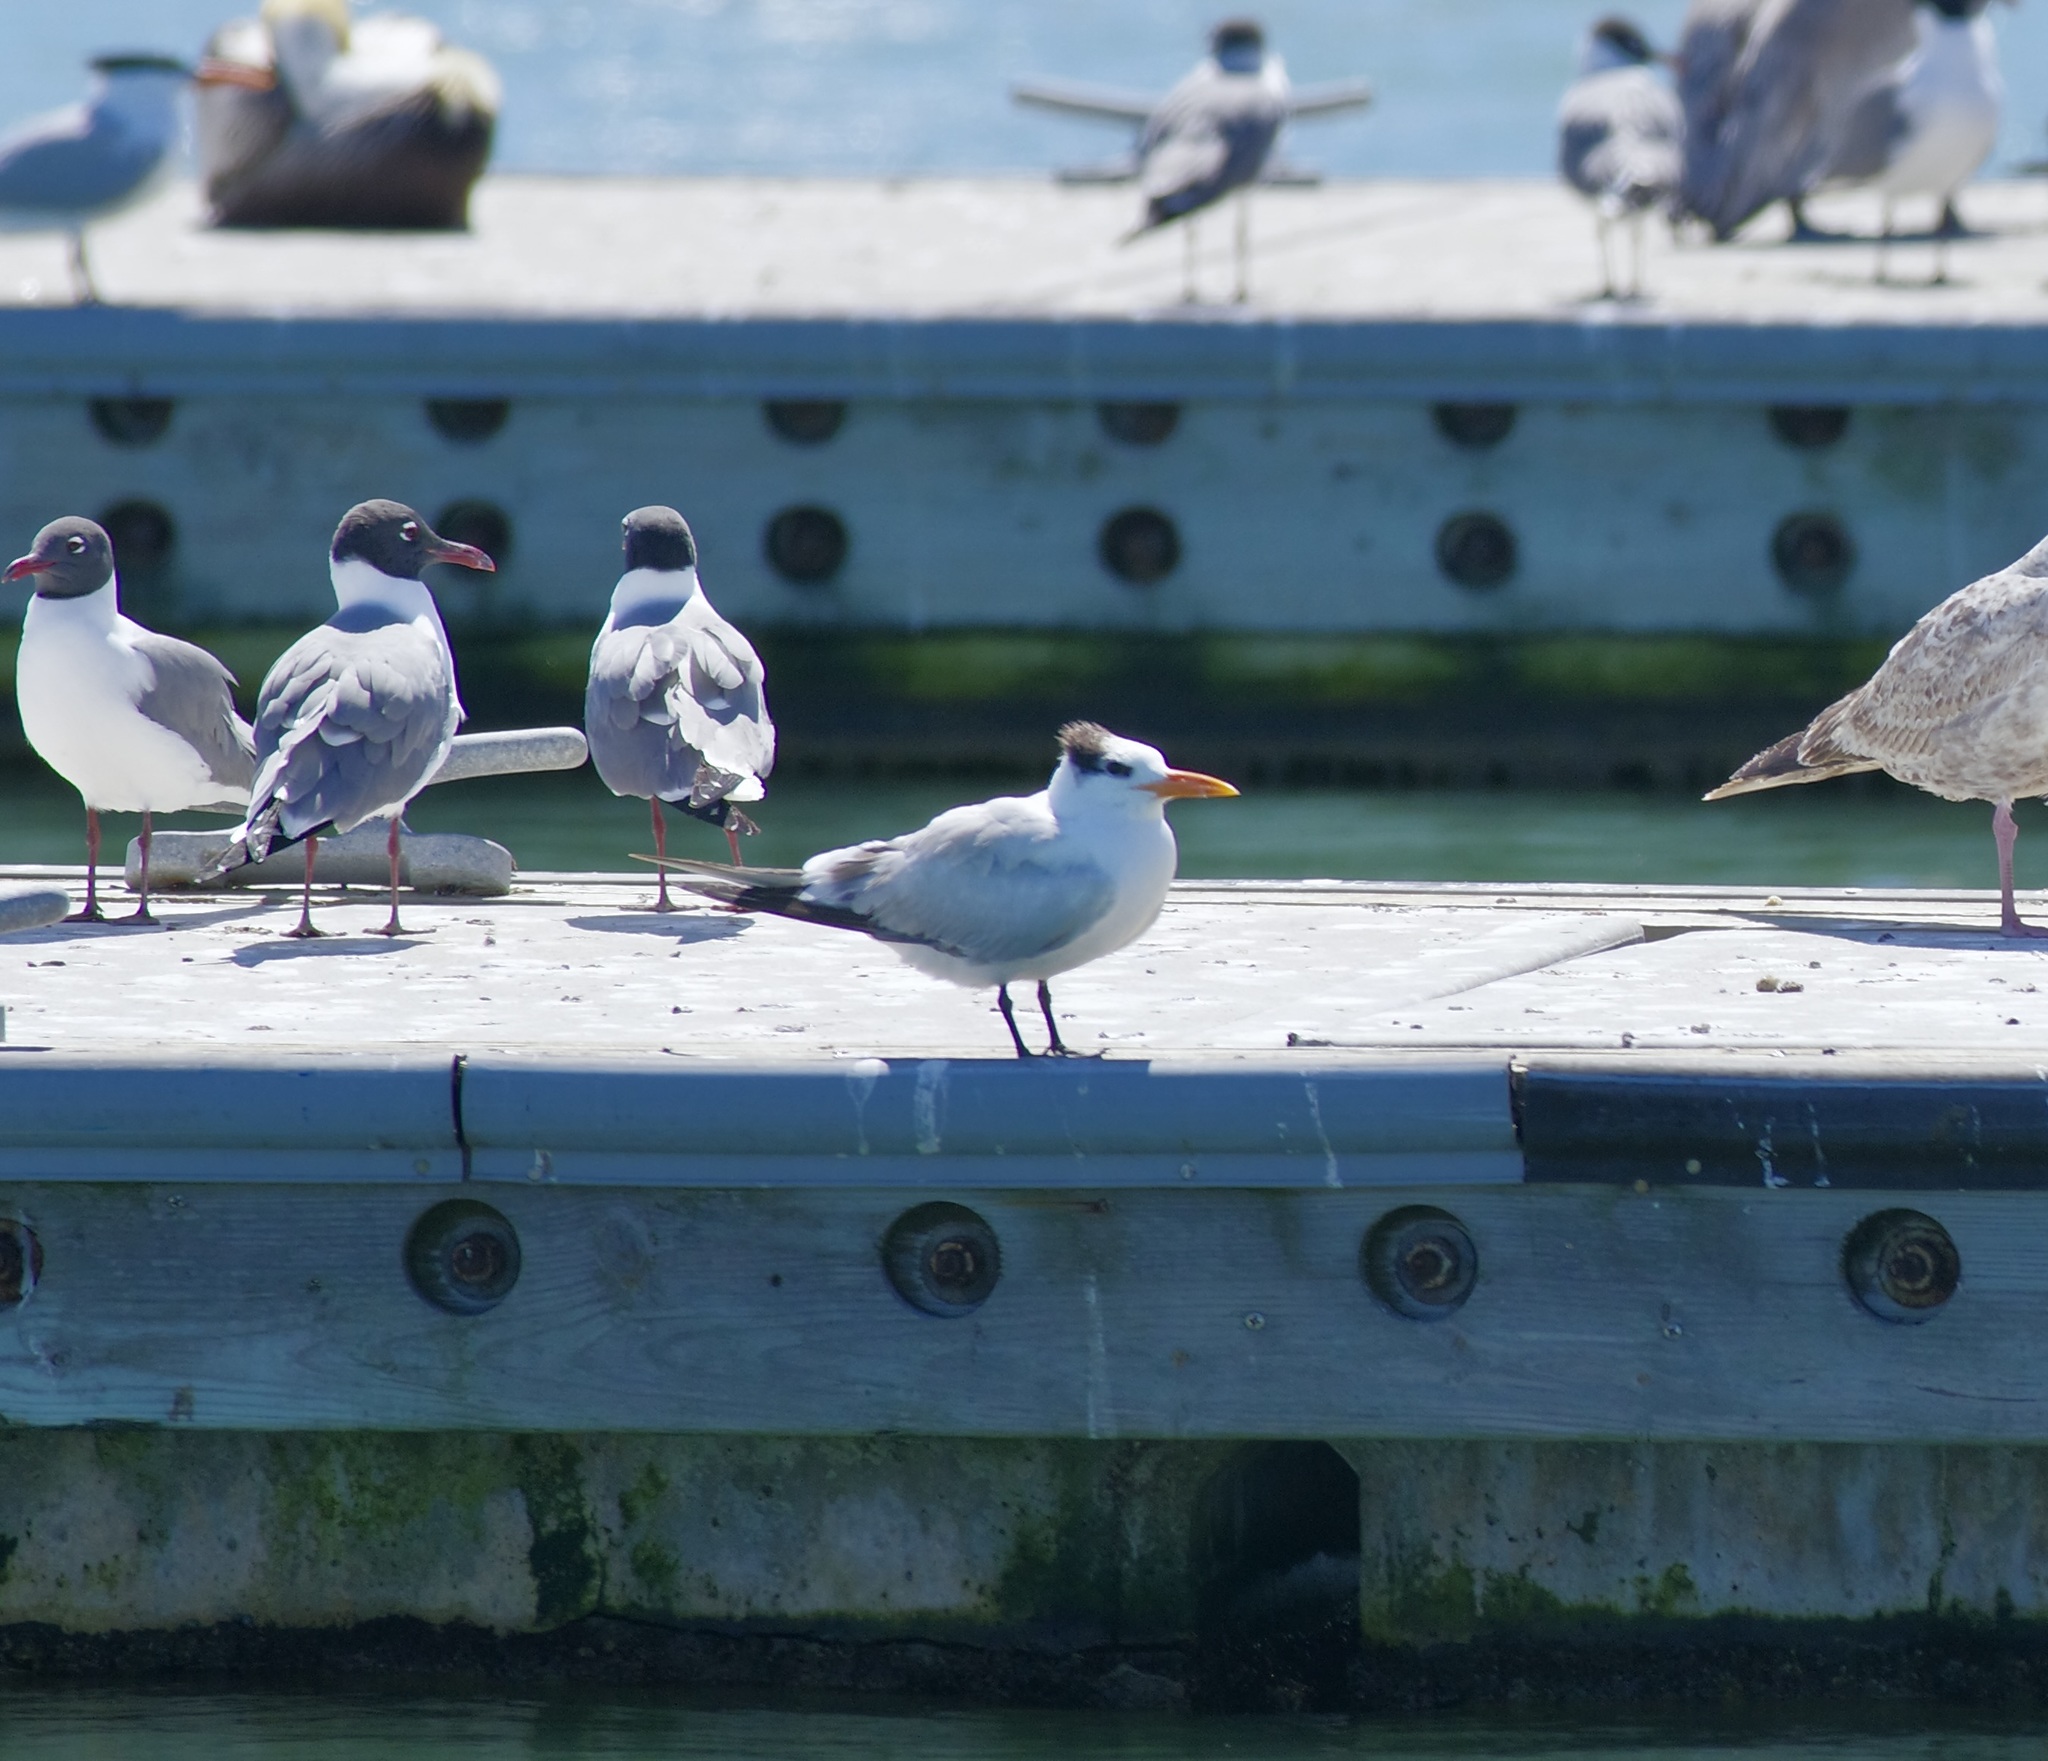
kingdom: Animalia
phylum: Chordata
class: Aves
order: Charadriiformes
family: Laridae
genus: Thalasseus
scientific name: Thalasseus maximus
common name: Royal tern
